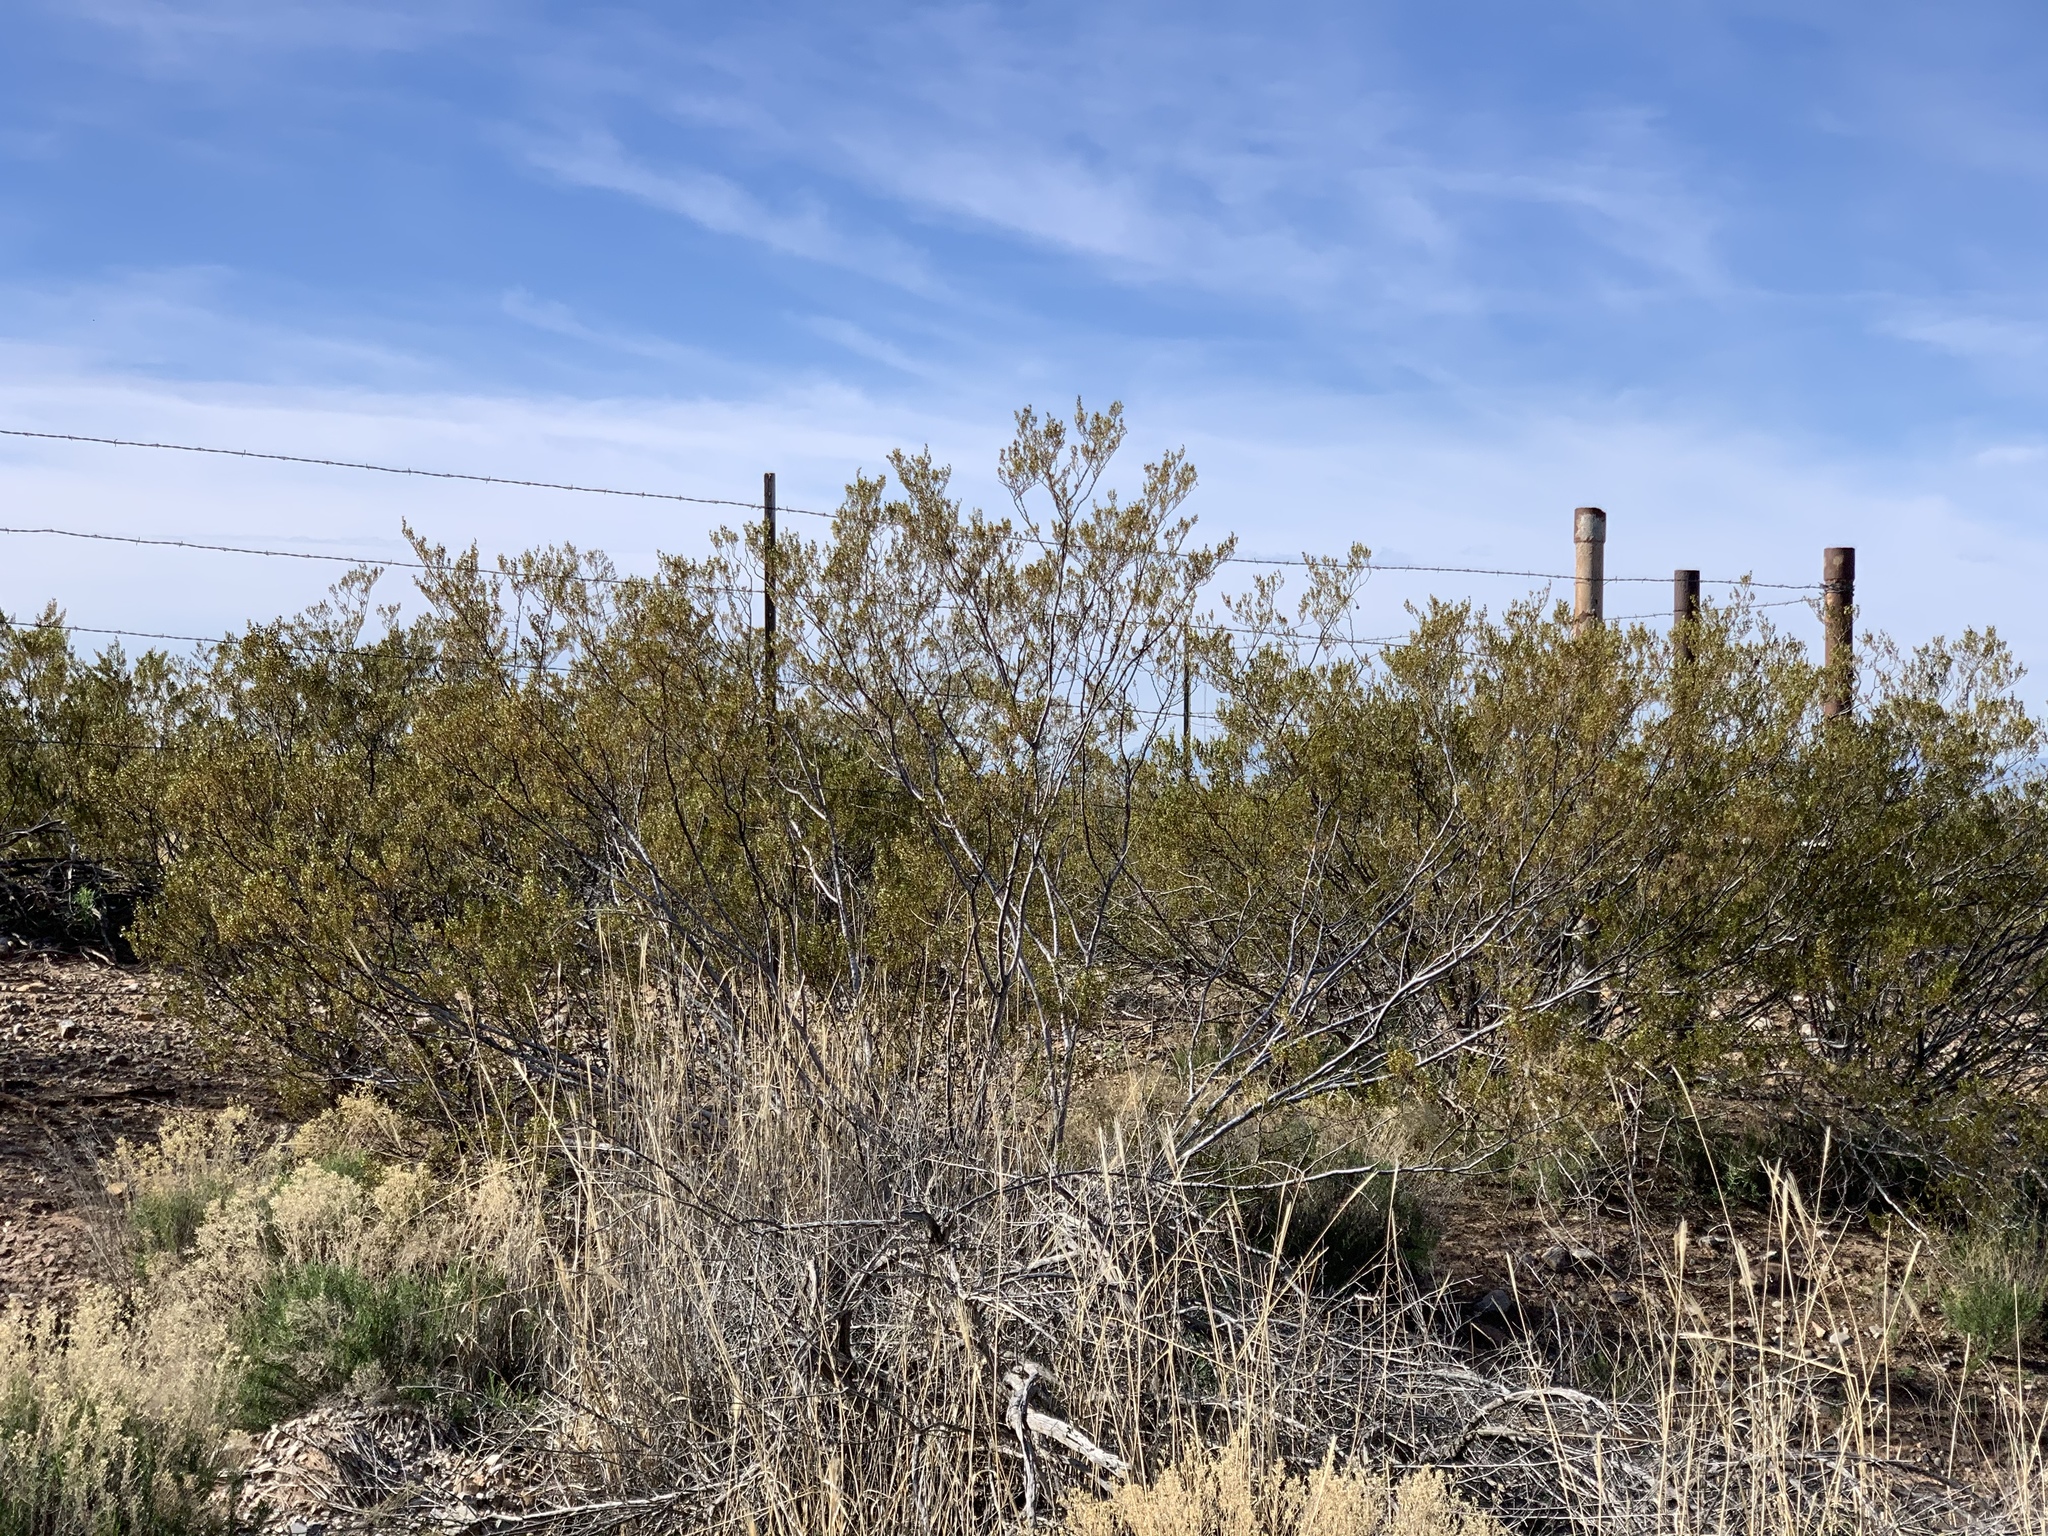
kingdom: Plantae
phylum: Tracheophyta
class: Magnoliopsida
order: Zygophyllales
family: Zygophyllaceae
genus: Larrea
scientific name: Larrea tridentata
